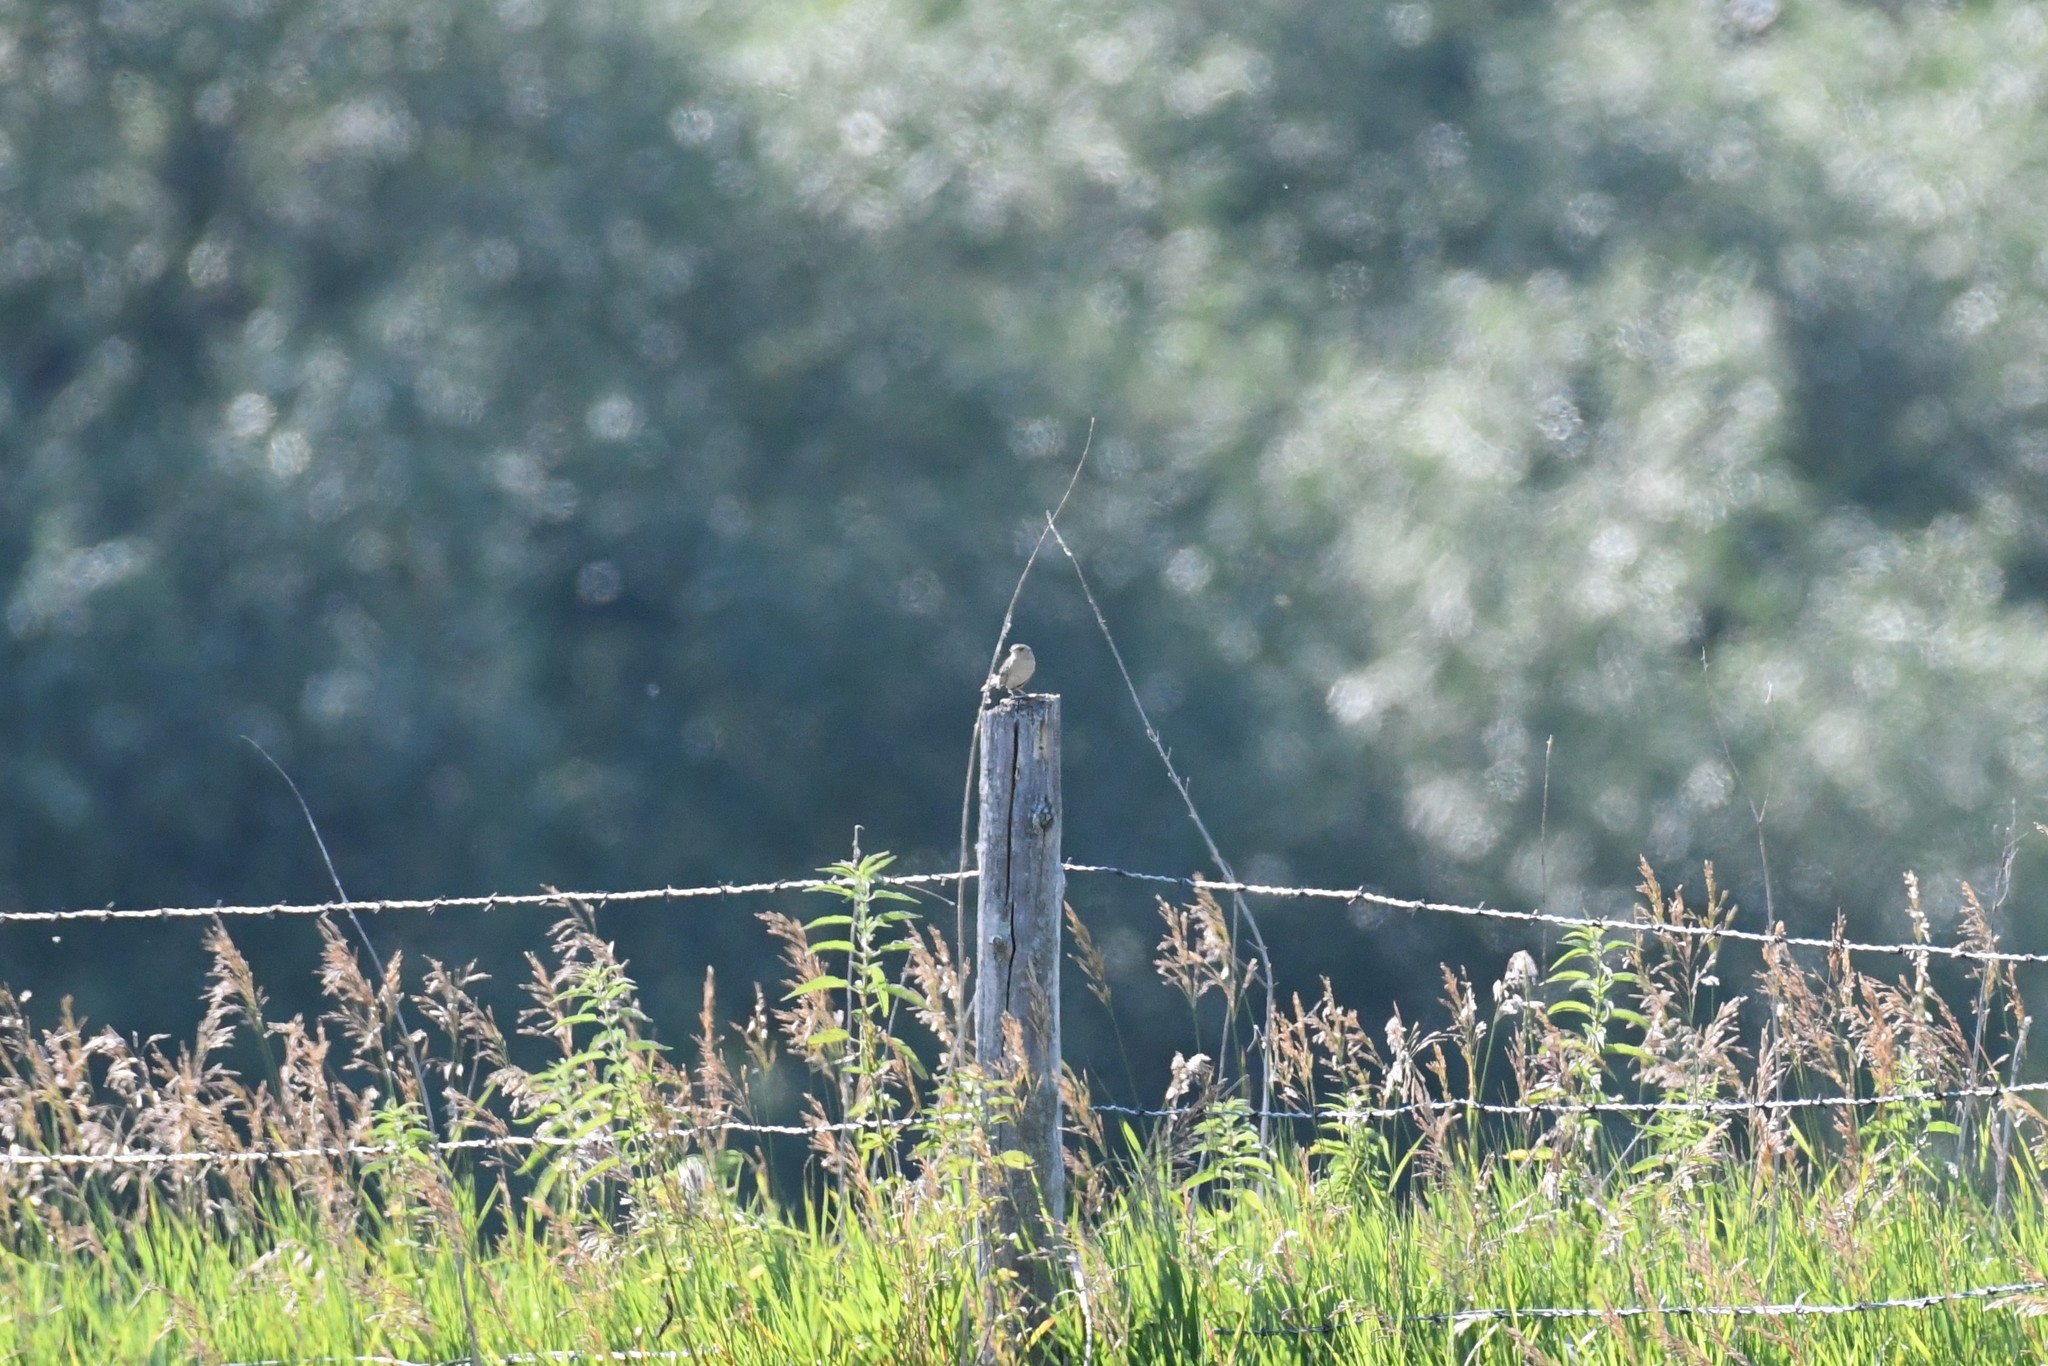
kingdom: Animalia
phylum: Chordata
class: Aves
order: Passeriformes
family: Passerellidae
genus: Ammodramus
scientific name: Ammodramus savannarum
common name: Grasshopper sparrow
